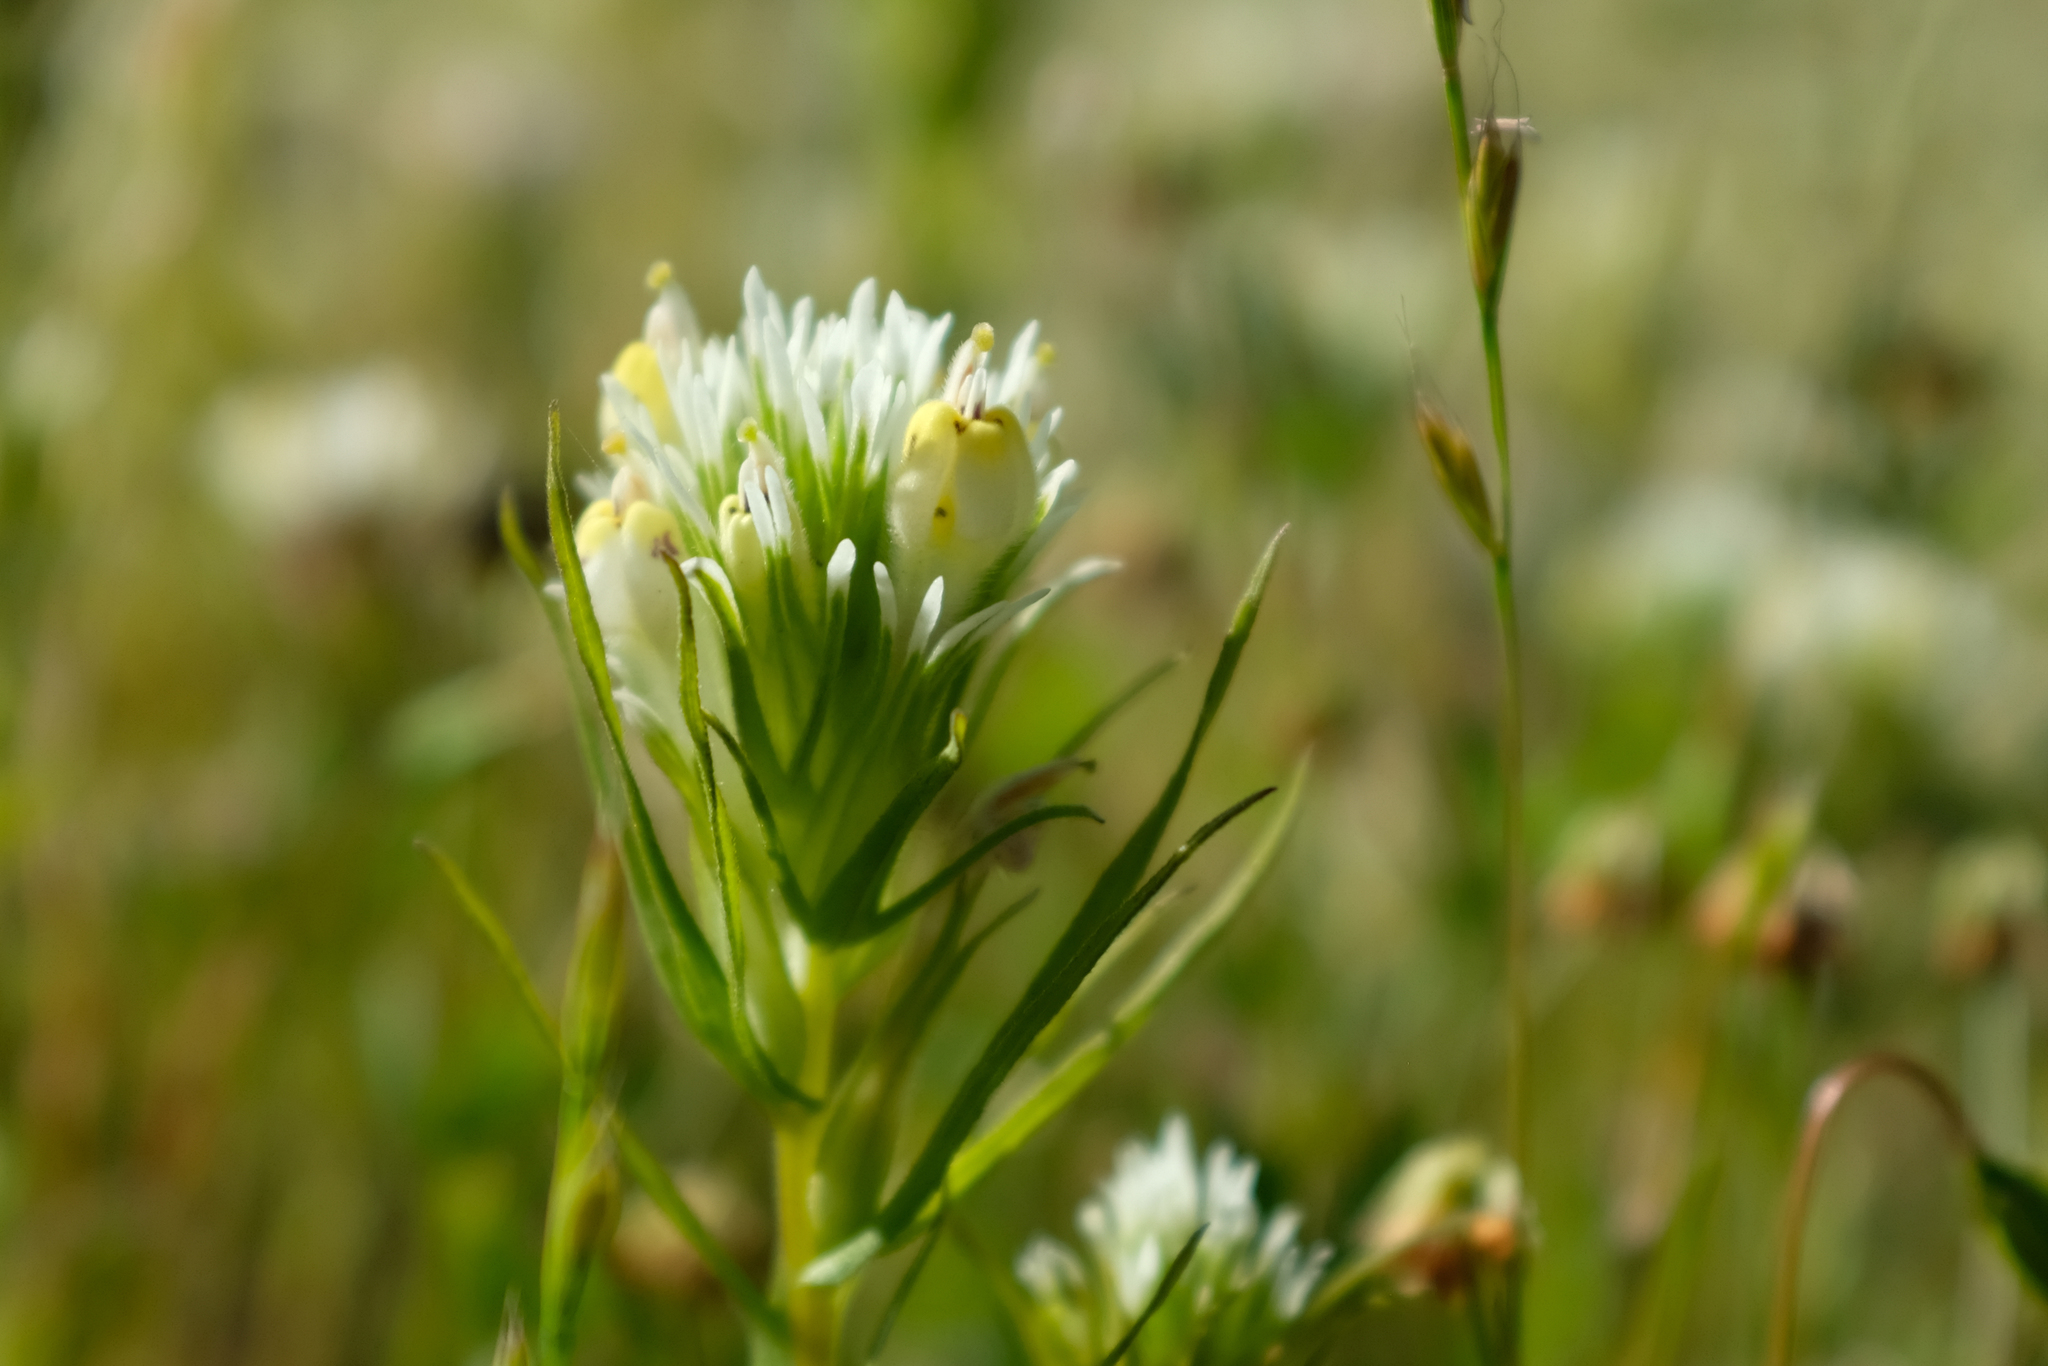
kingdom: Plantae
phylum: Tracheophyta
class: Magnoliopsida
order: Lamiales
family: Orobanchaceae
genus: Castilleja
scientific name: Castilleja densiflora
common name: Dense-flower indian paintbrush
